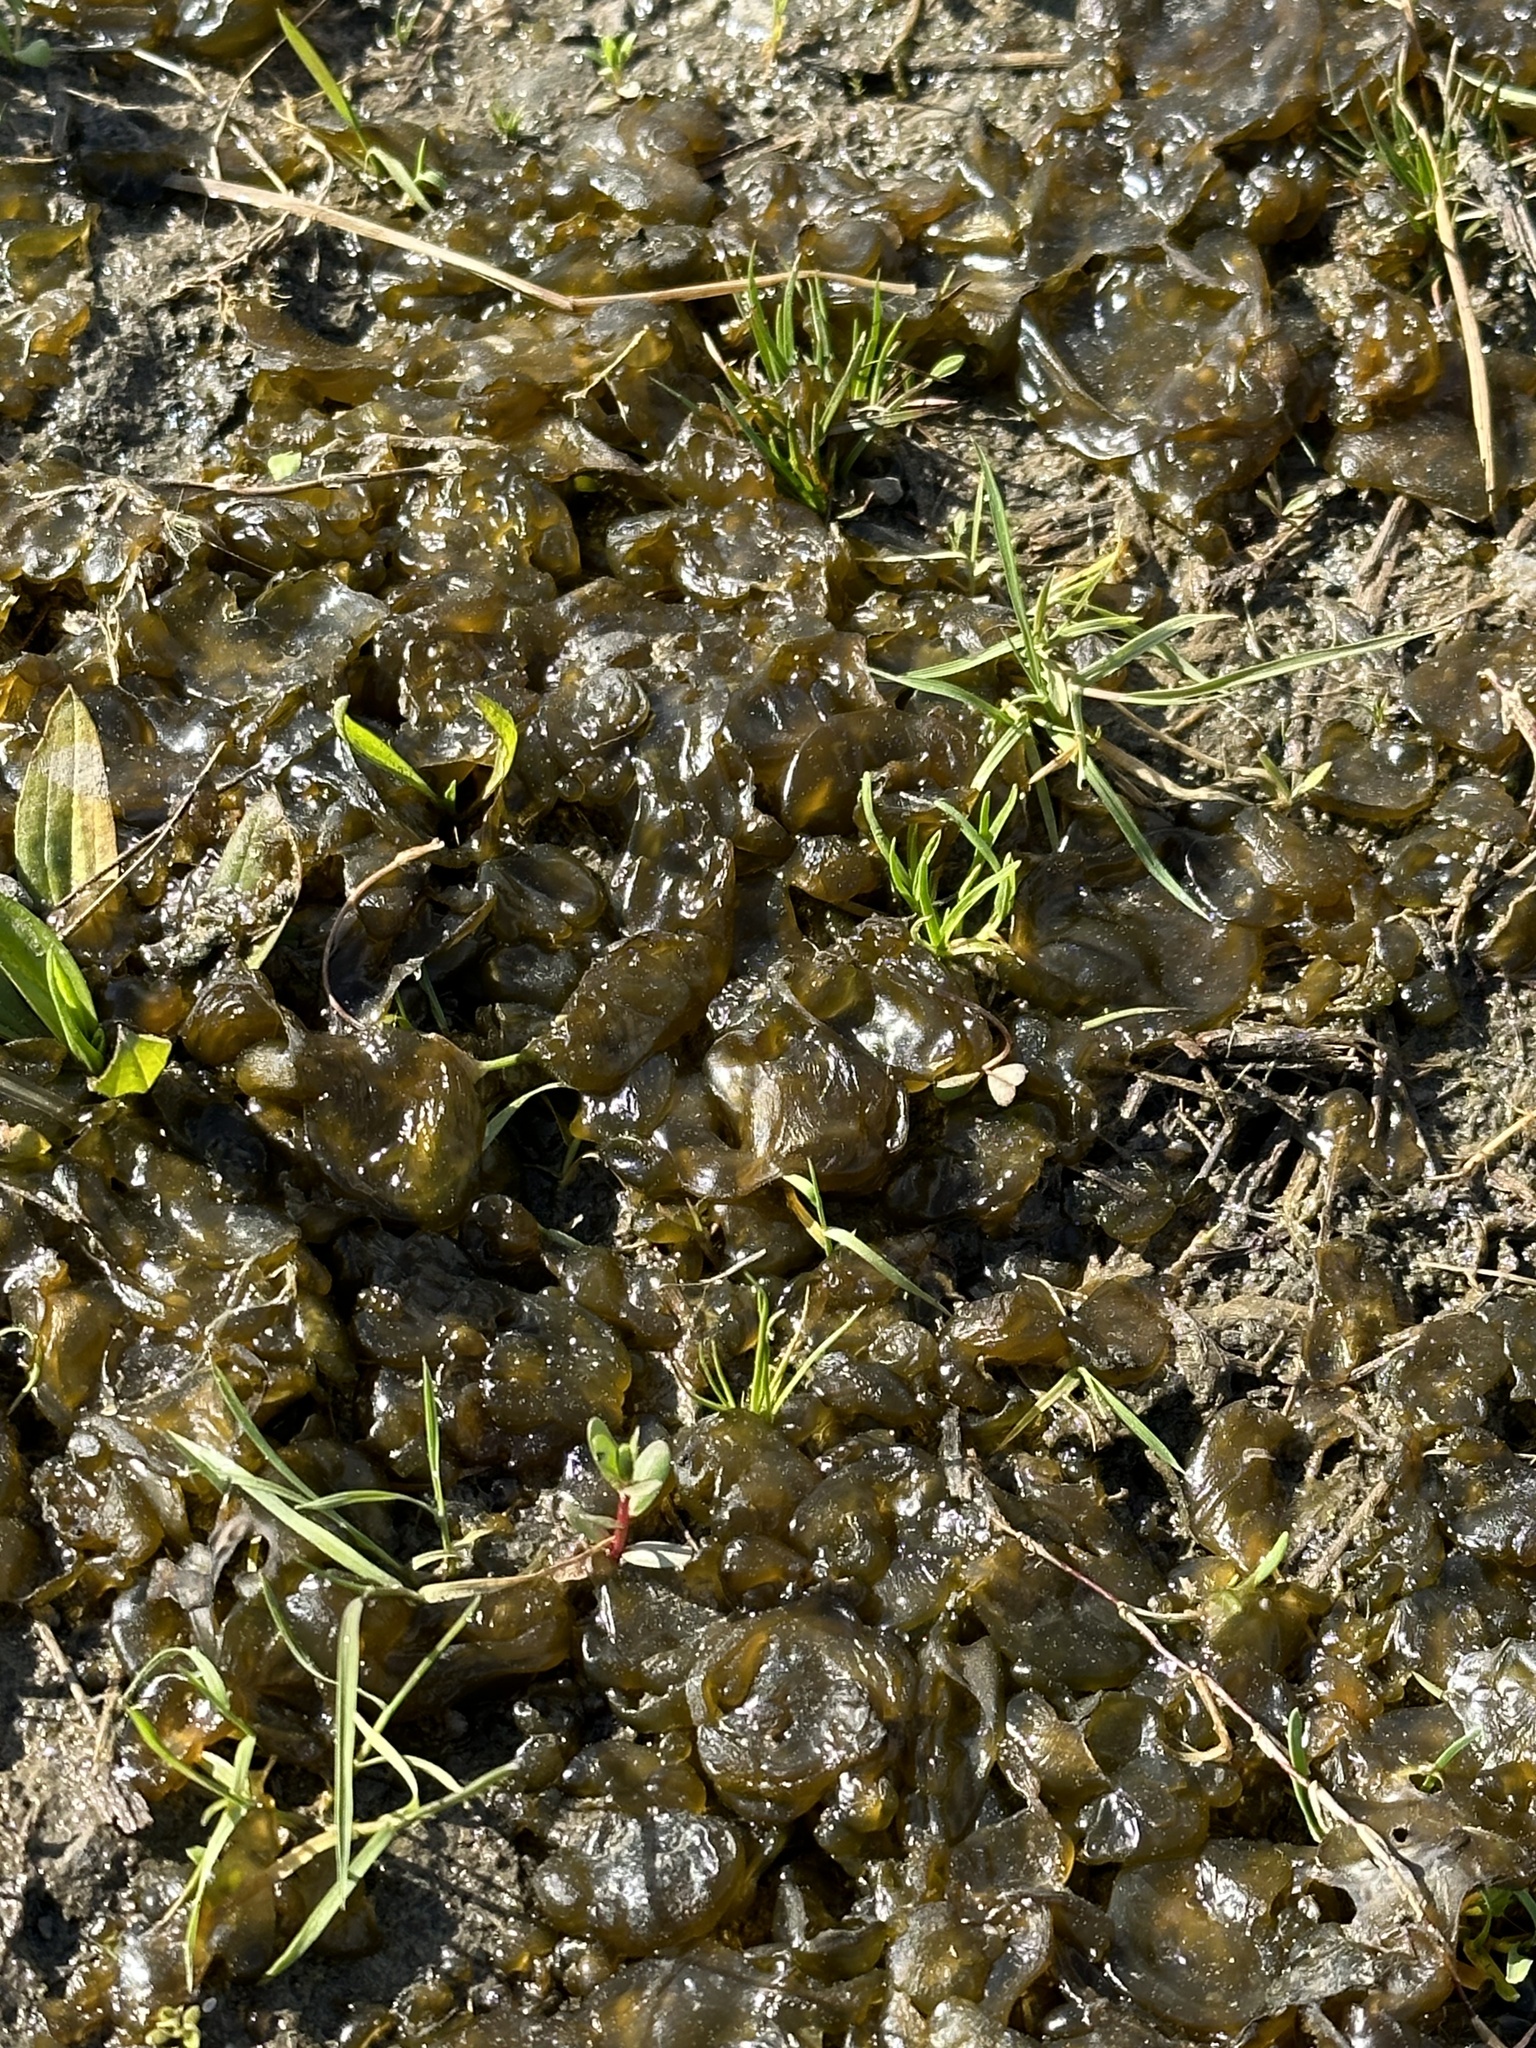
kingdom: Bacteria
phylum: Cyanobacteria
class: Cyanobacteriia
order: Cyanobacteriales
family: Nostocaceae
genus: Nostoc
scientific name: Nostoc commune
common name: Star jelly
